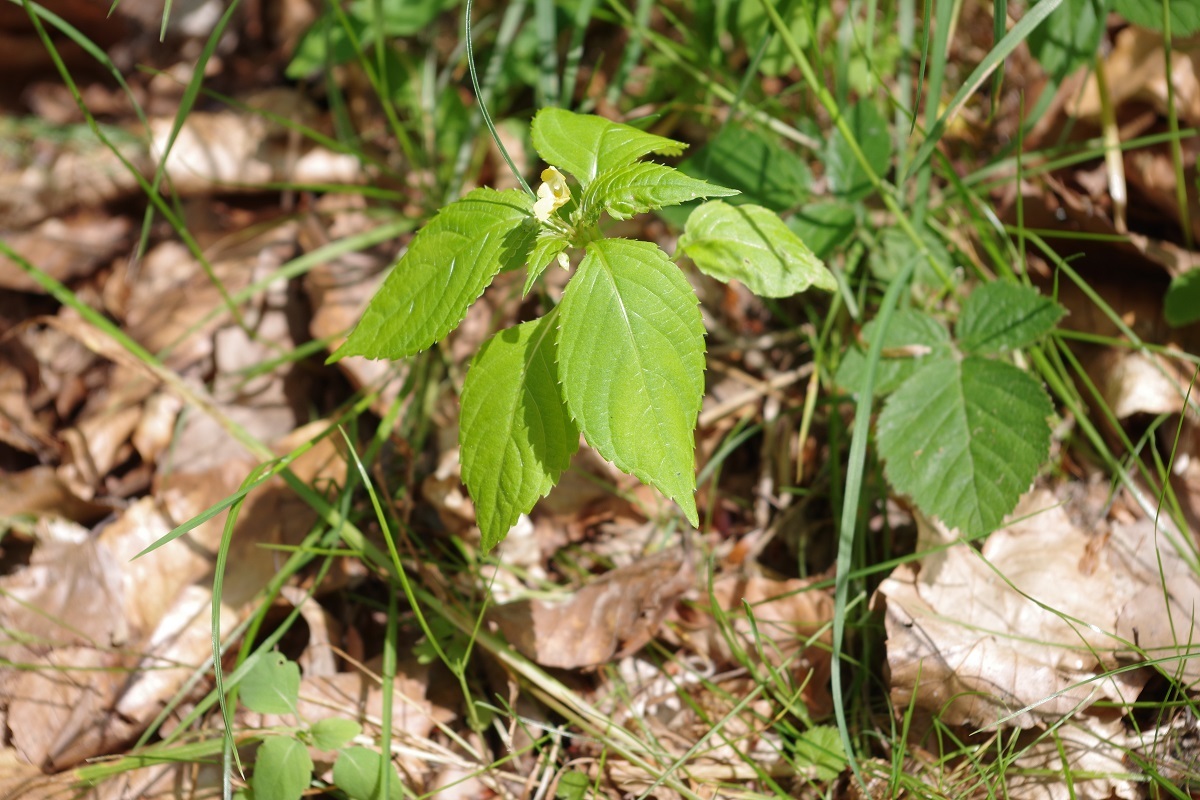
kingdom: Plantae
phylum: Tracheophyta
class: Magnoliopsida
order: Ericales
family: Balsaminaceae
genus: Impatiens
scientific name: Impatiens parviflora
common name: Small balsam
